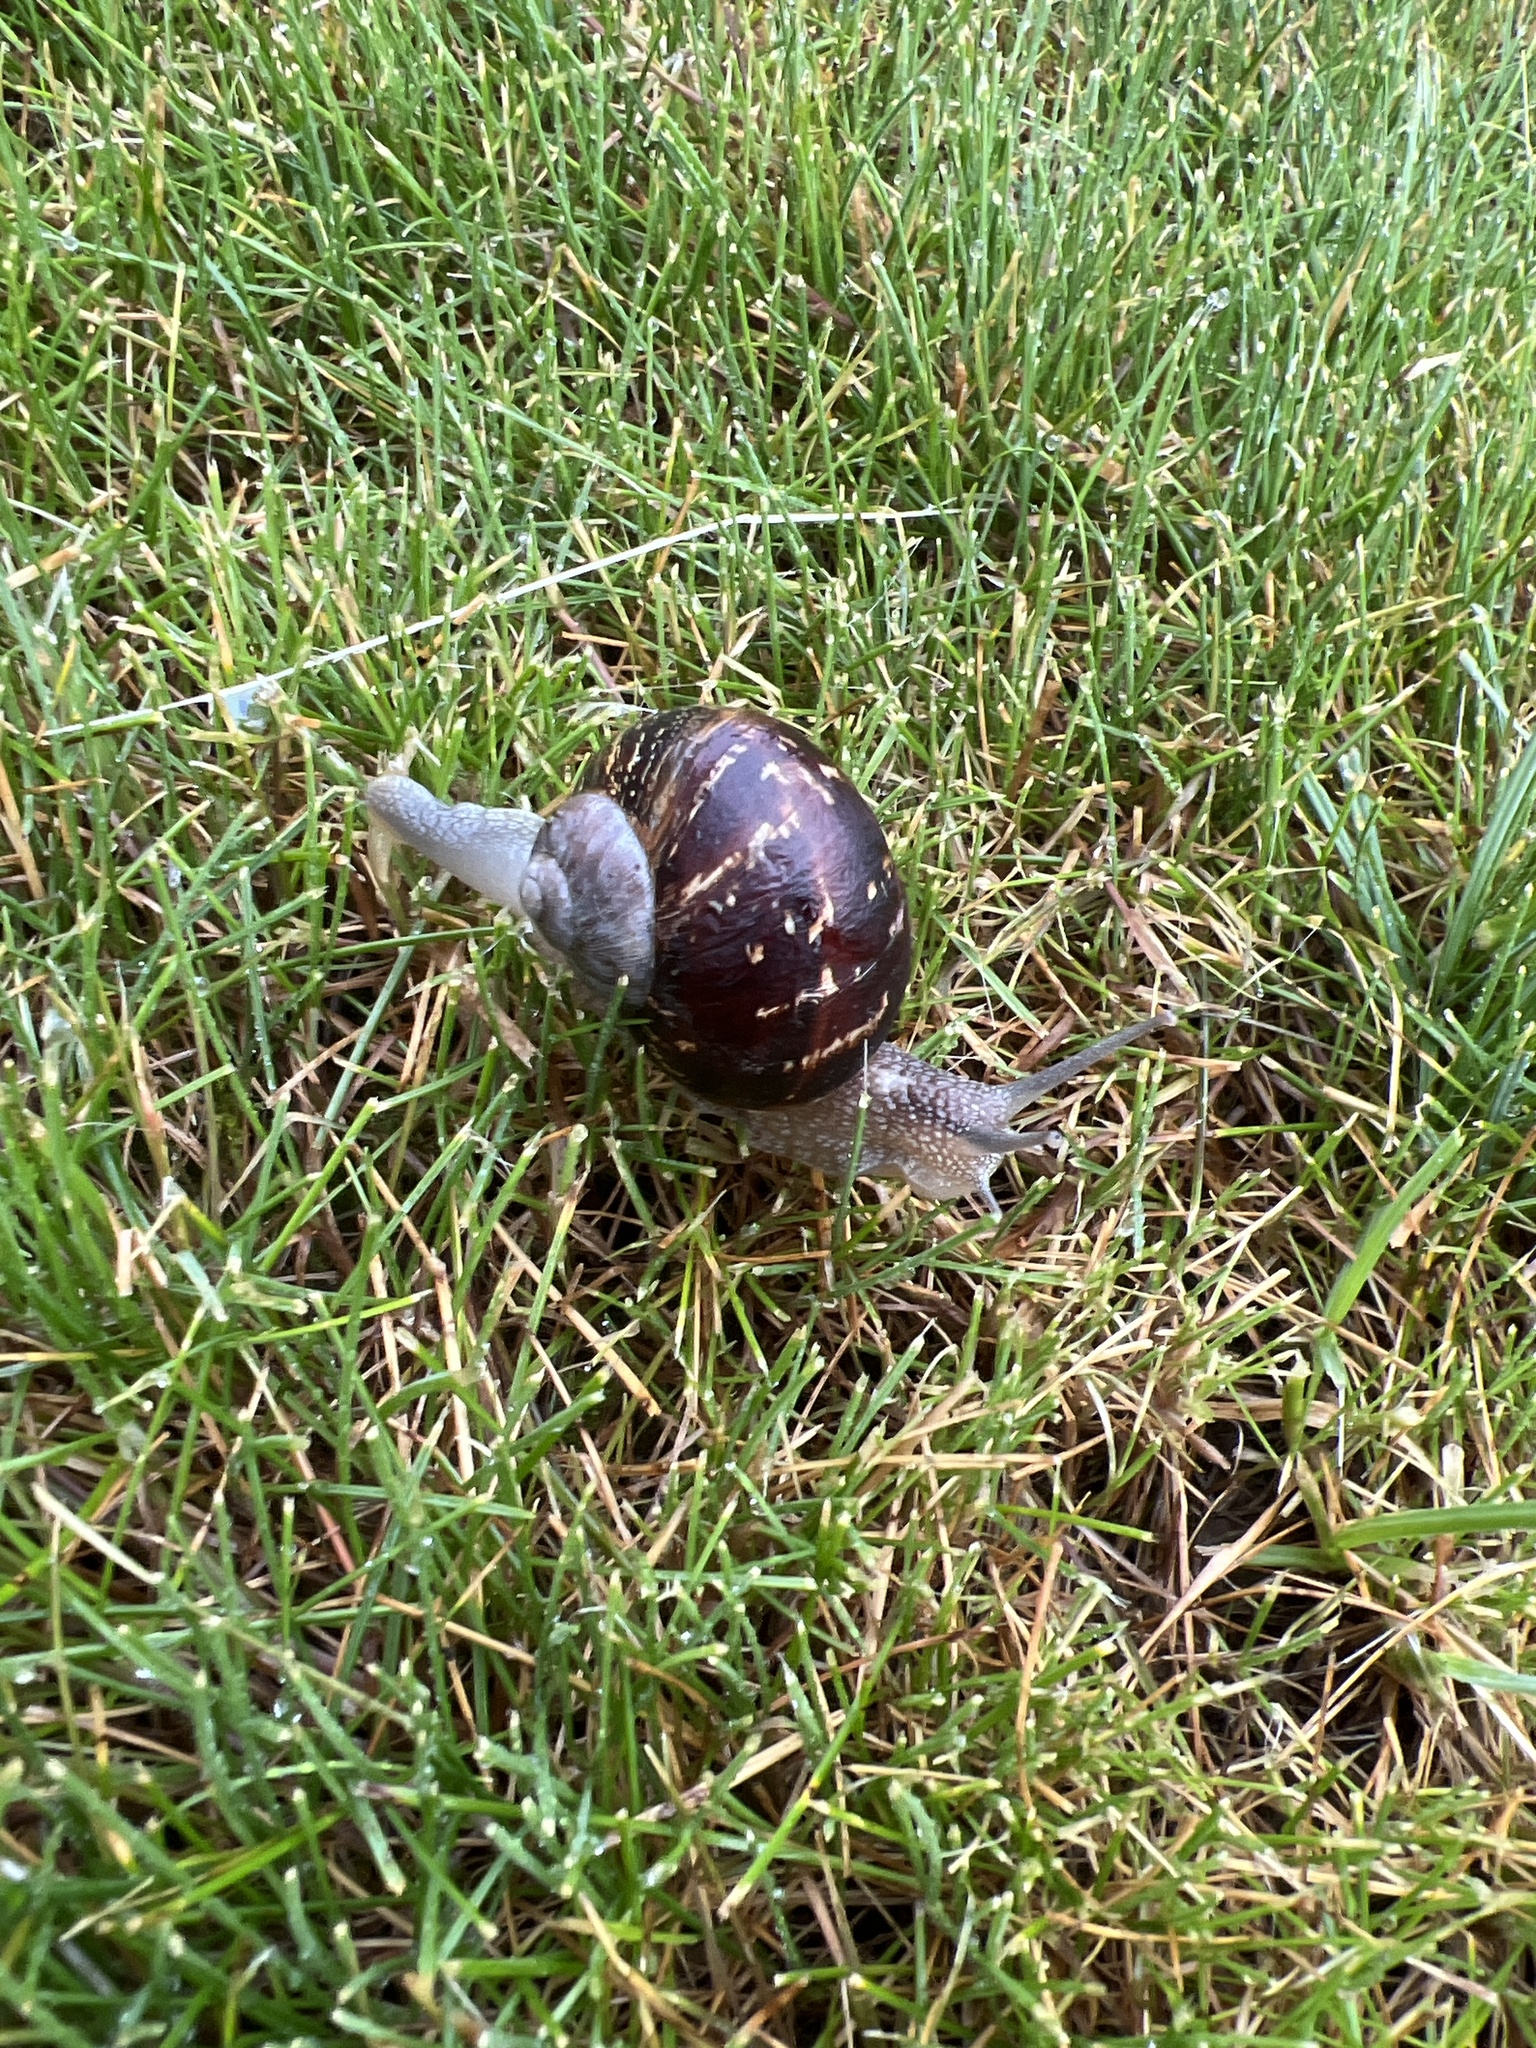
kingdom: Animalia
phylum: Mollusca
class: Gastropoda
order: Stylommatophora
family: Helicidae
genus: Cornu
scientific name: Cornu aspersum
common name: Brown garden snail
